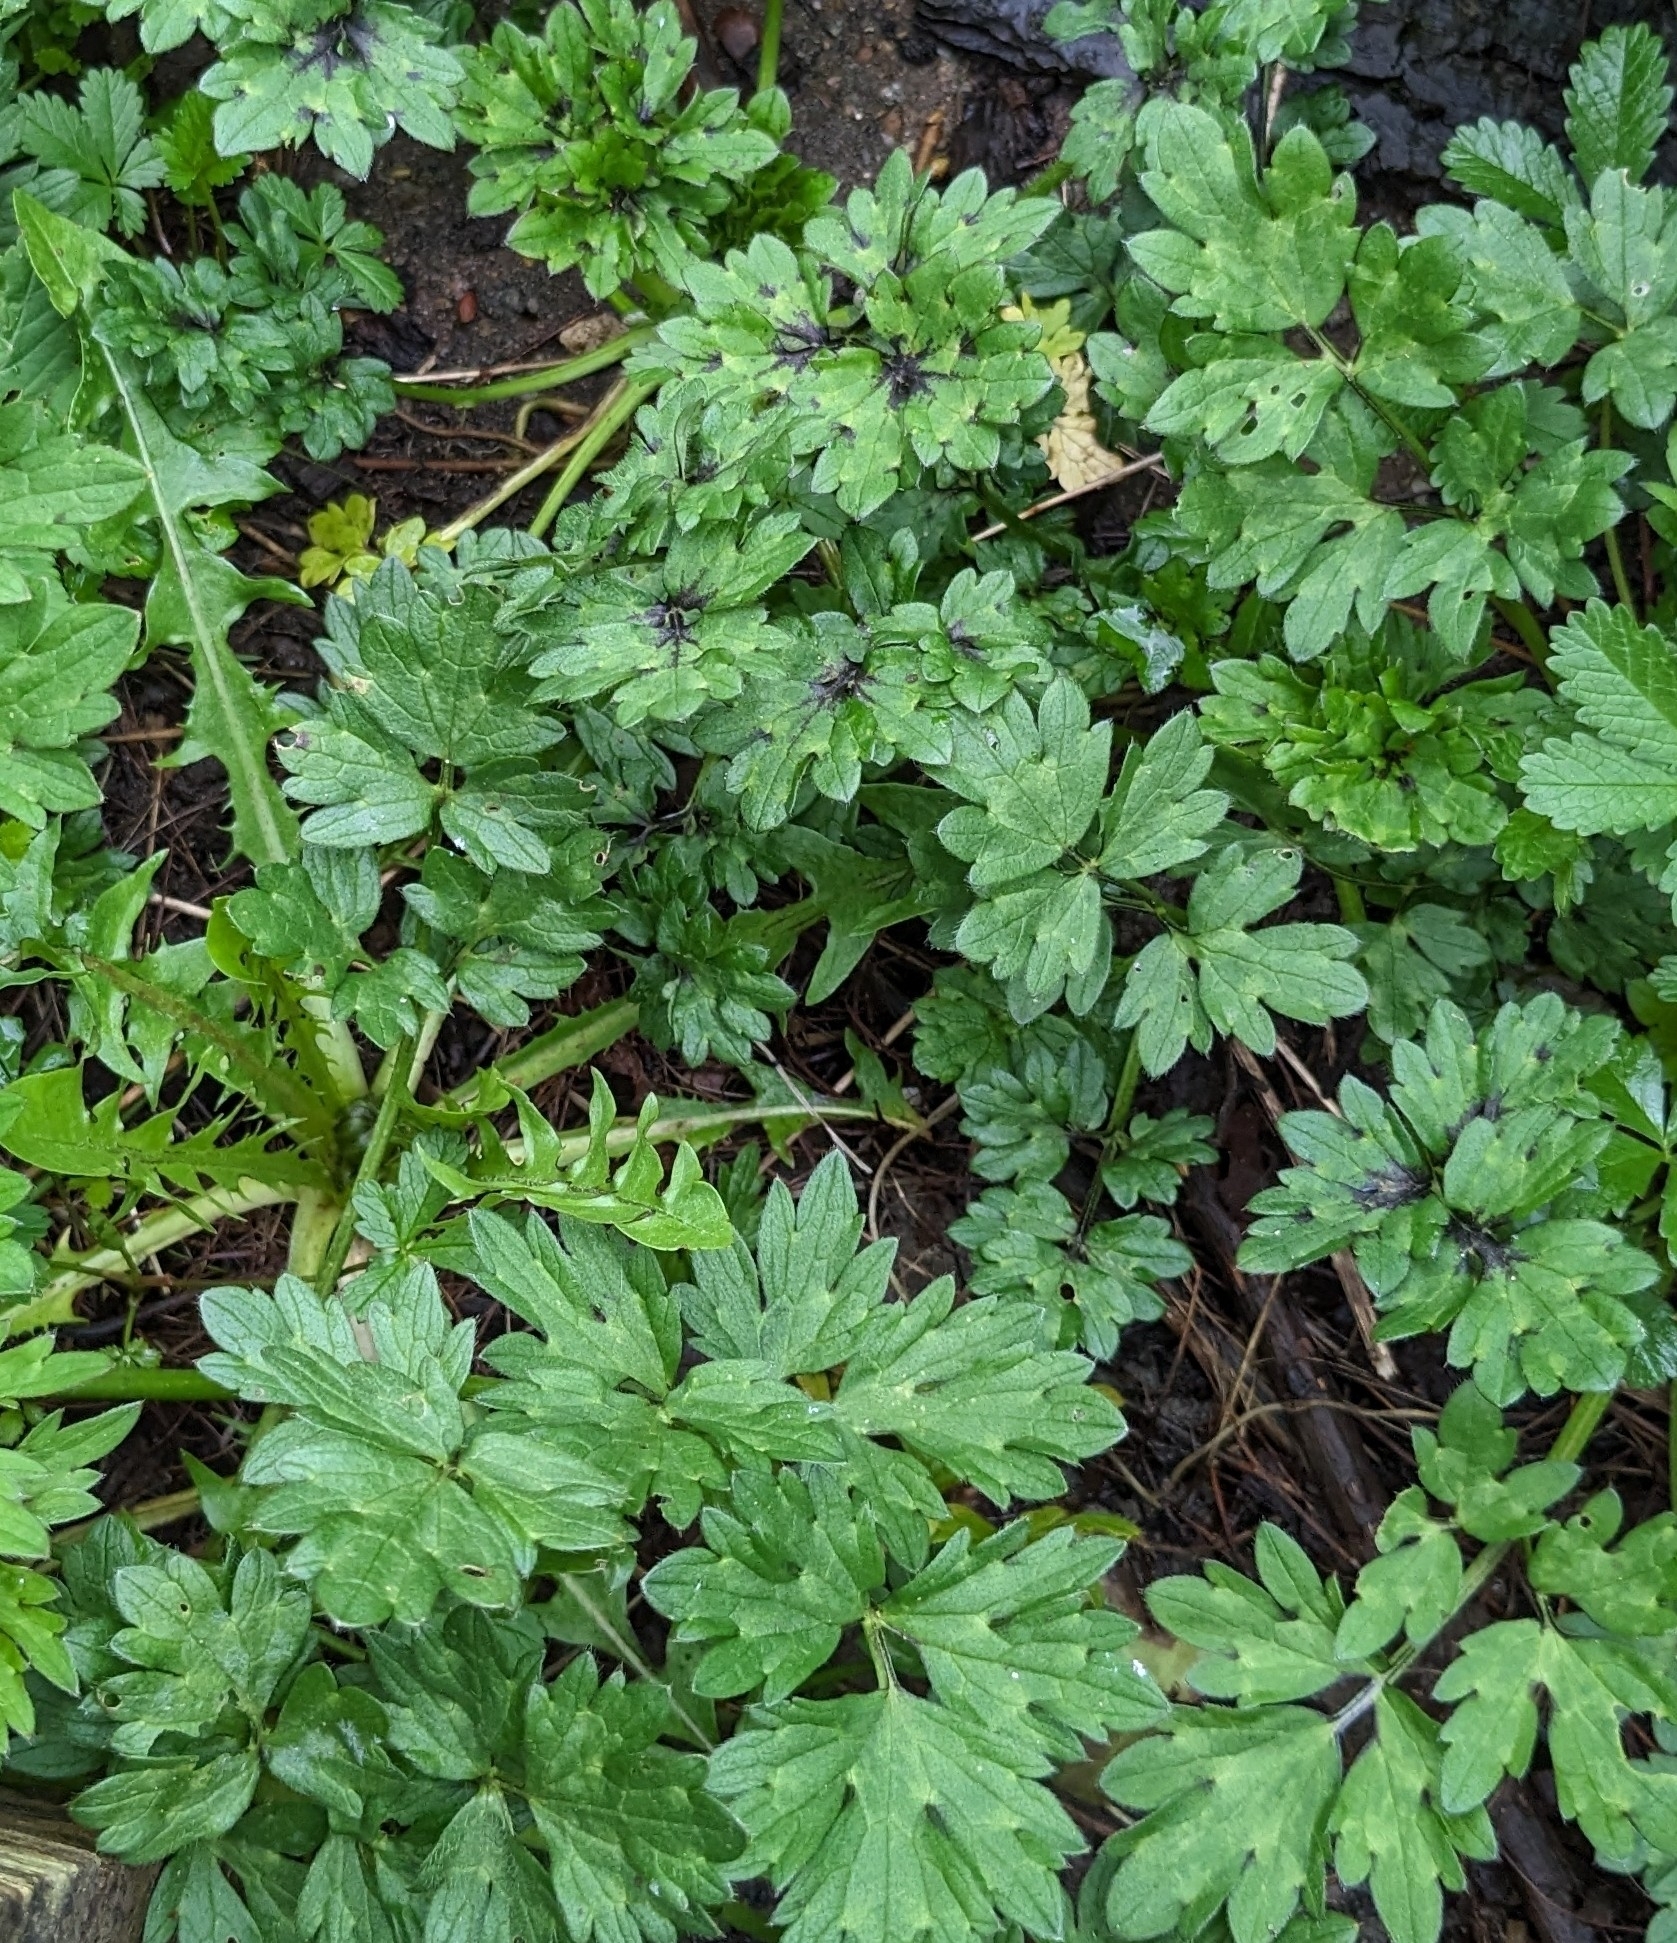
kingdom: Plantae
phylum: Tracheophyta
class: Magnoliopsida
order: Ranunculales
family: Ranunculaceae
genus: Ranunculus
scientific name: Ranunculus repens
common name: Creeping buttercup
